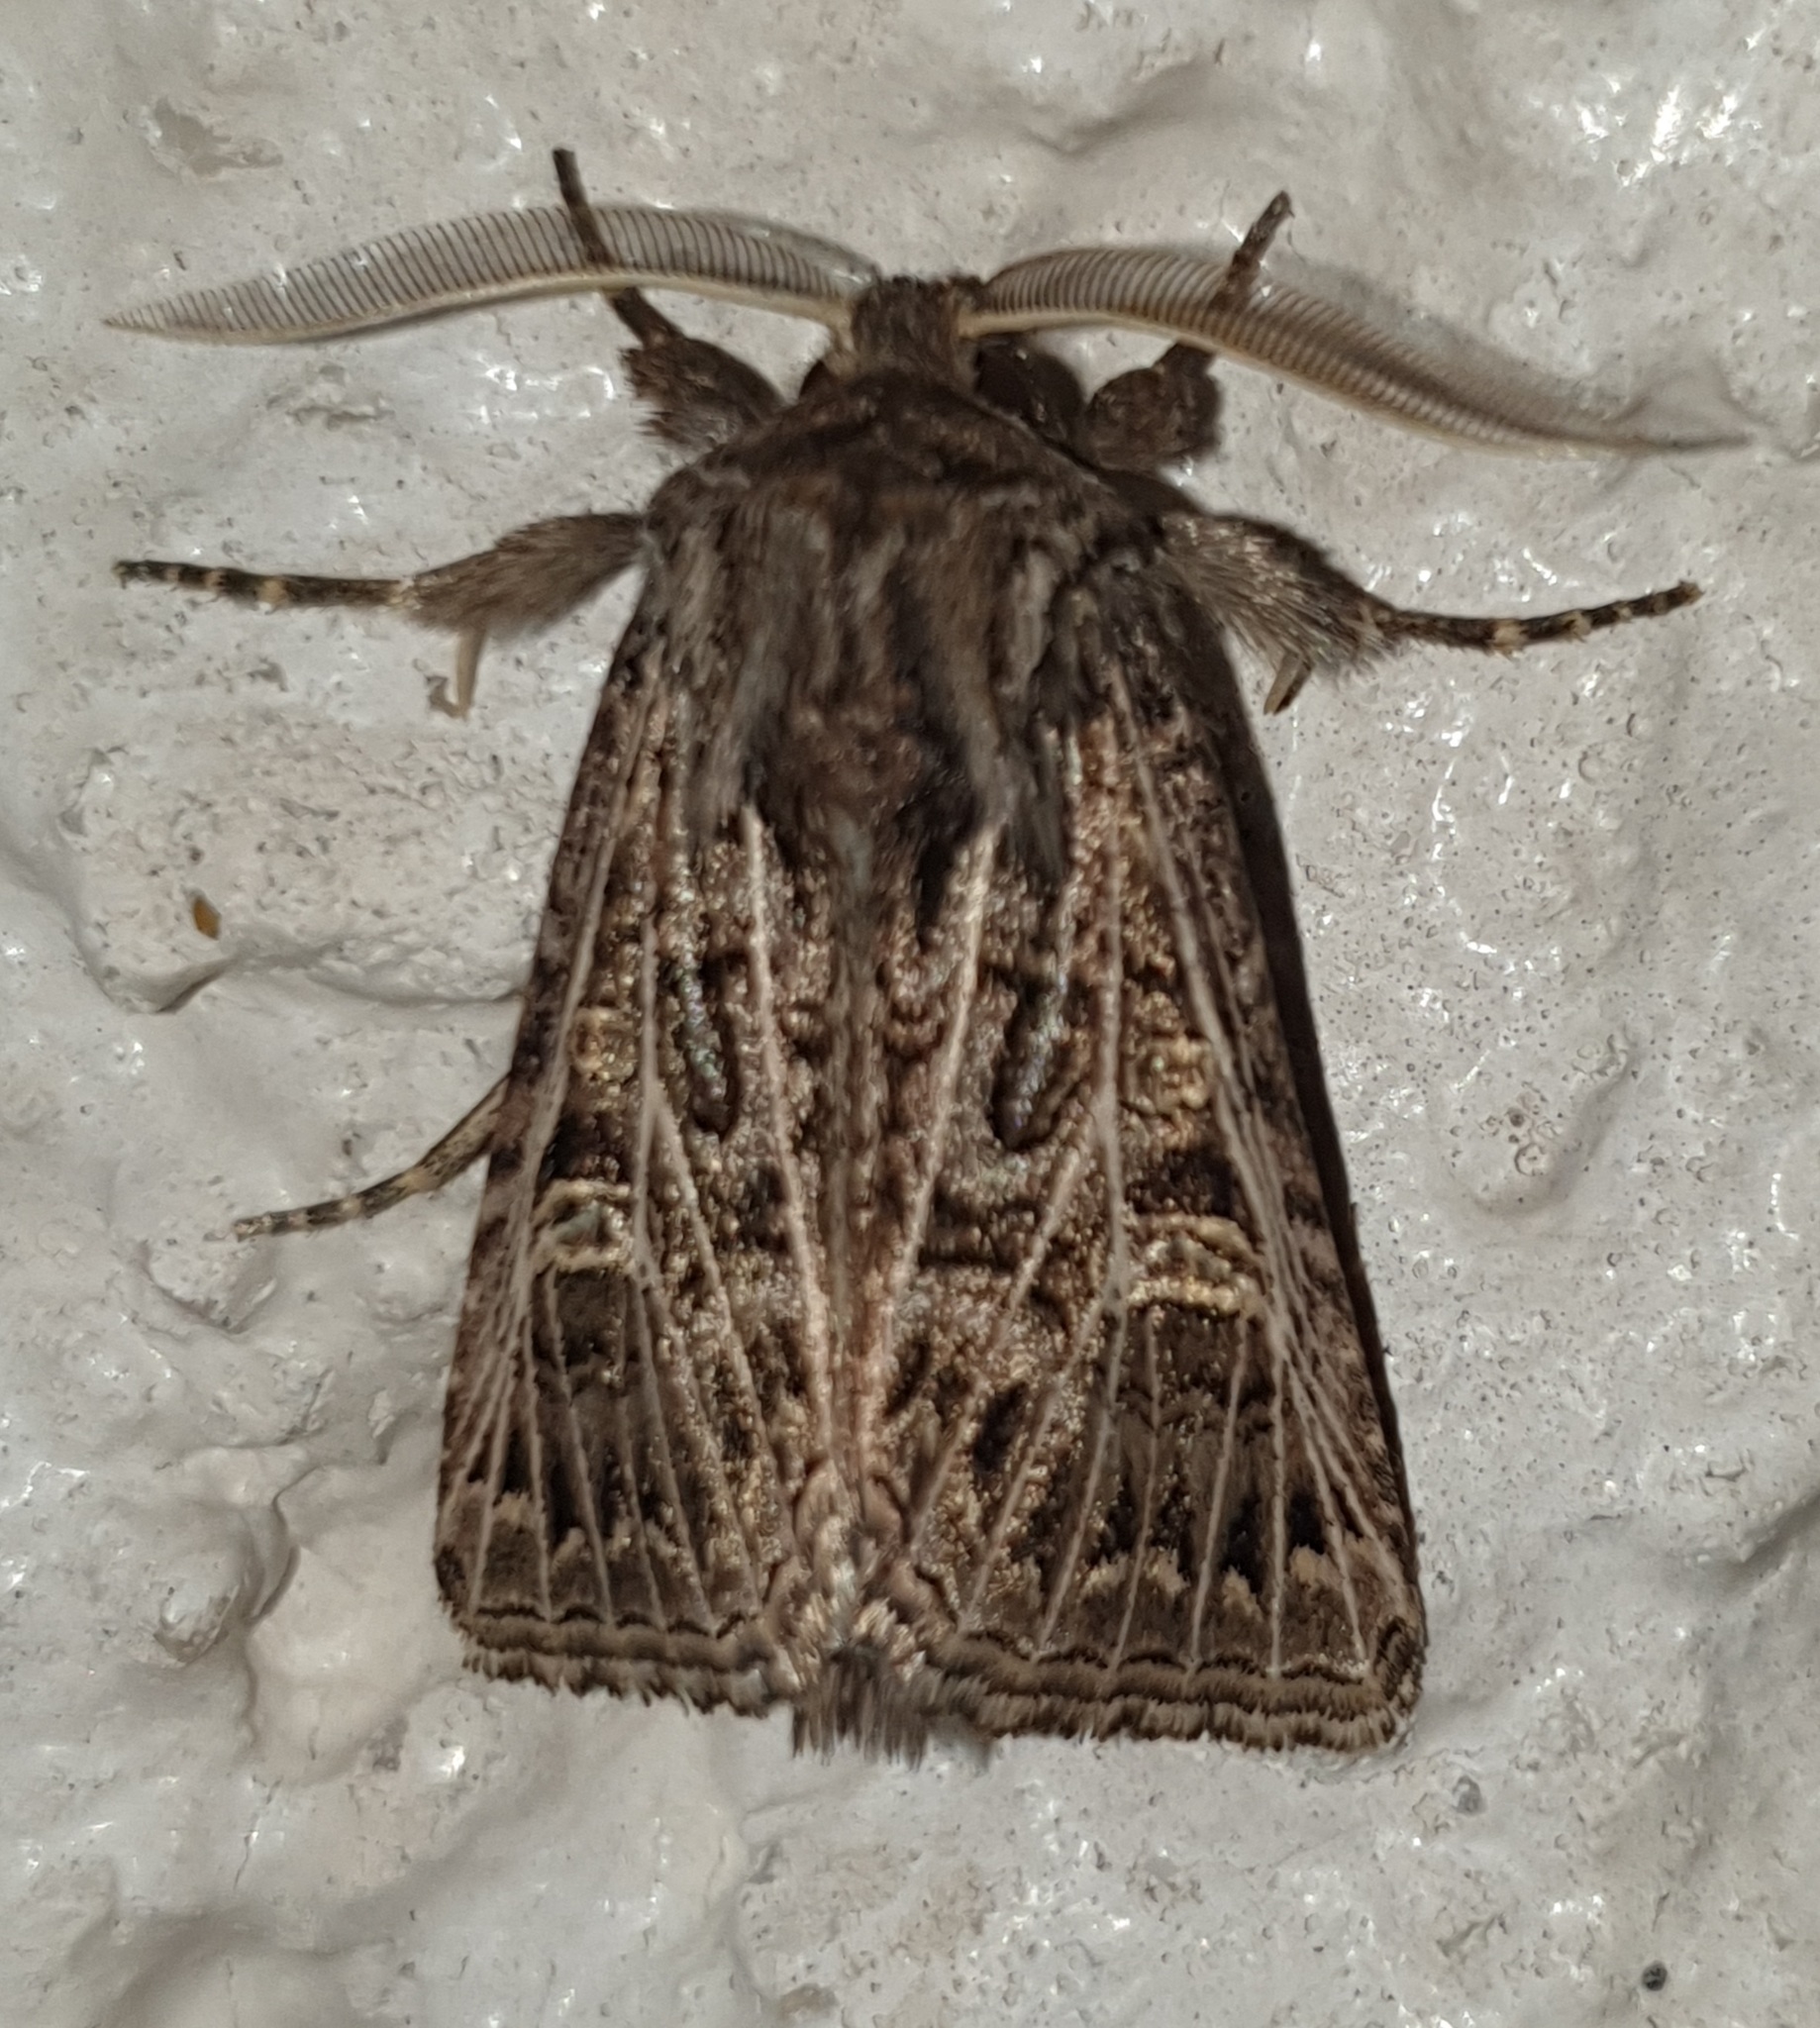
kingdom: Animalia
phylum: Arthropoda
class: Insecta
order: Lepidoptera
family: Noctuidae
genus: Tholera
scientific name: Tholera decimalis
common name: Feathered gothic
